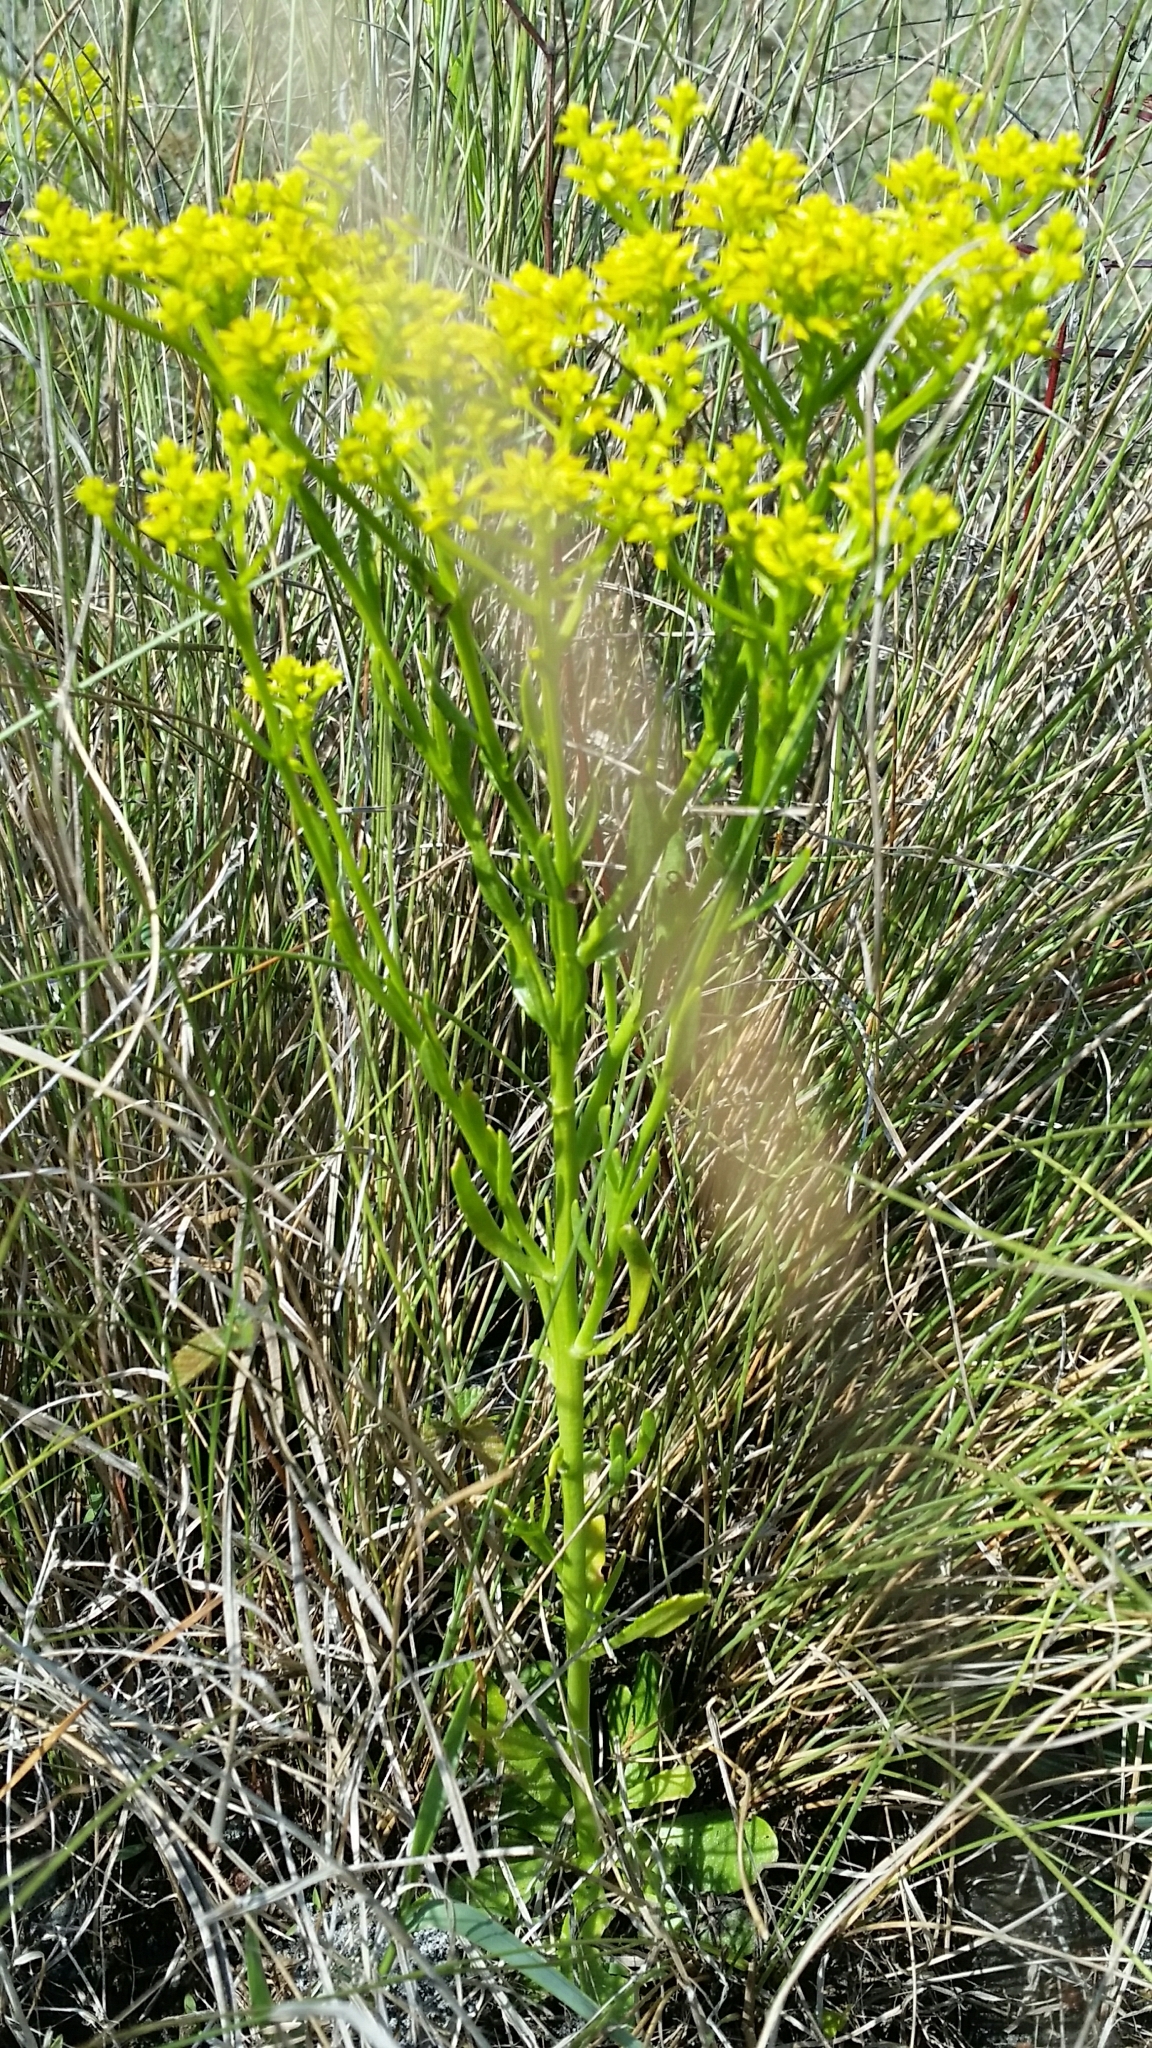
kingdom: Plantae
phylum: Tracheophyta
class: Magnoliopsida
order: Fabales
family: Polygalaceae
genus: Polygala
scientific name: Polygala ramosa
